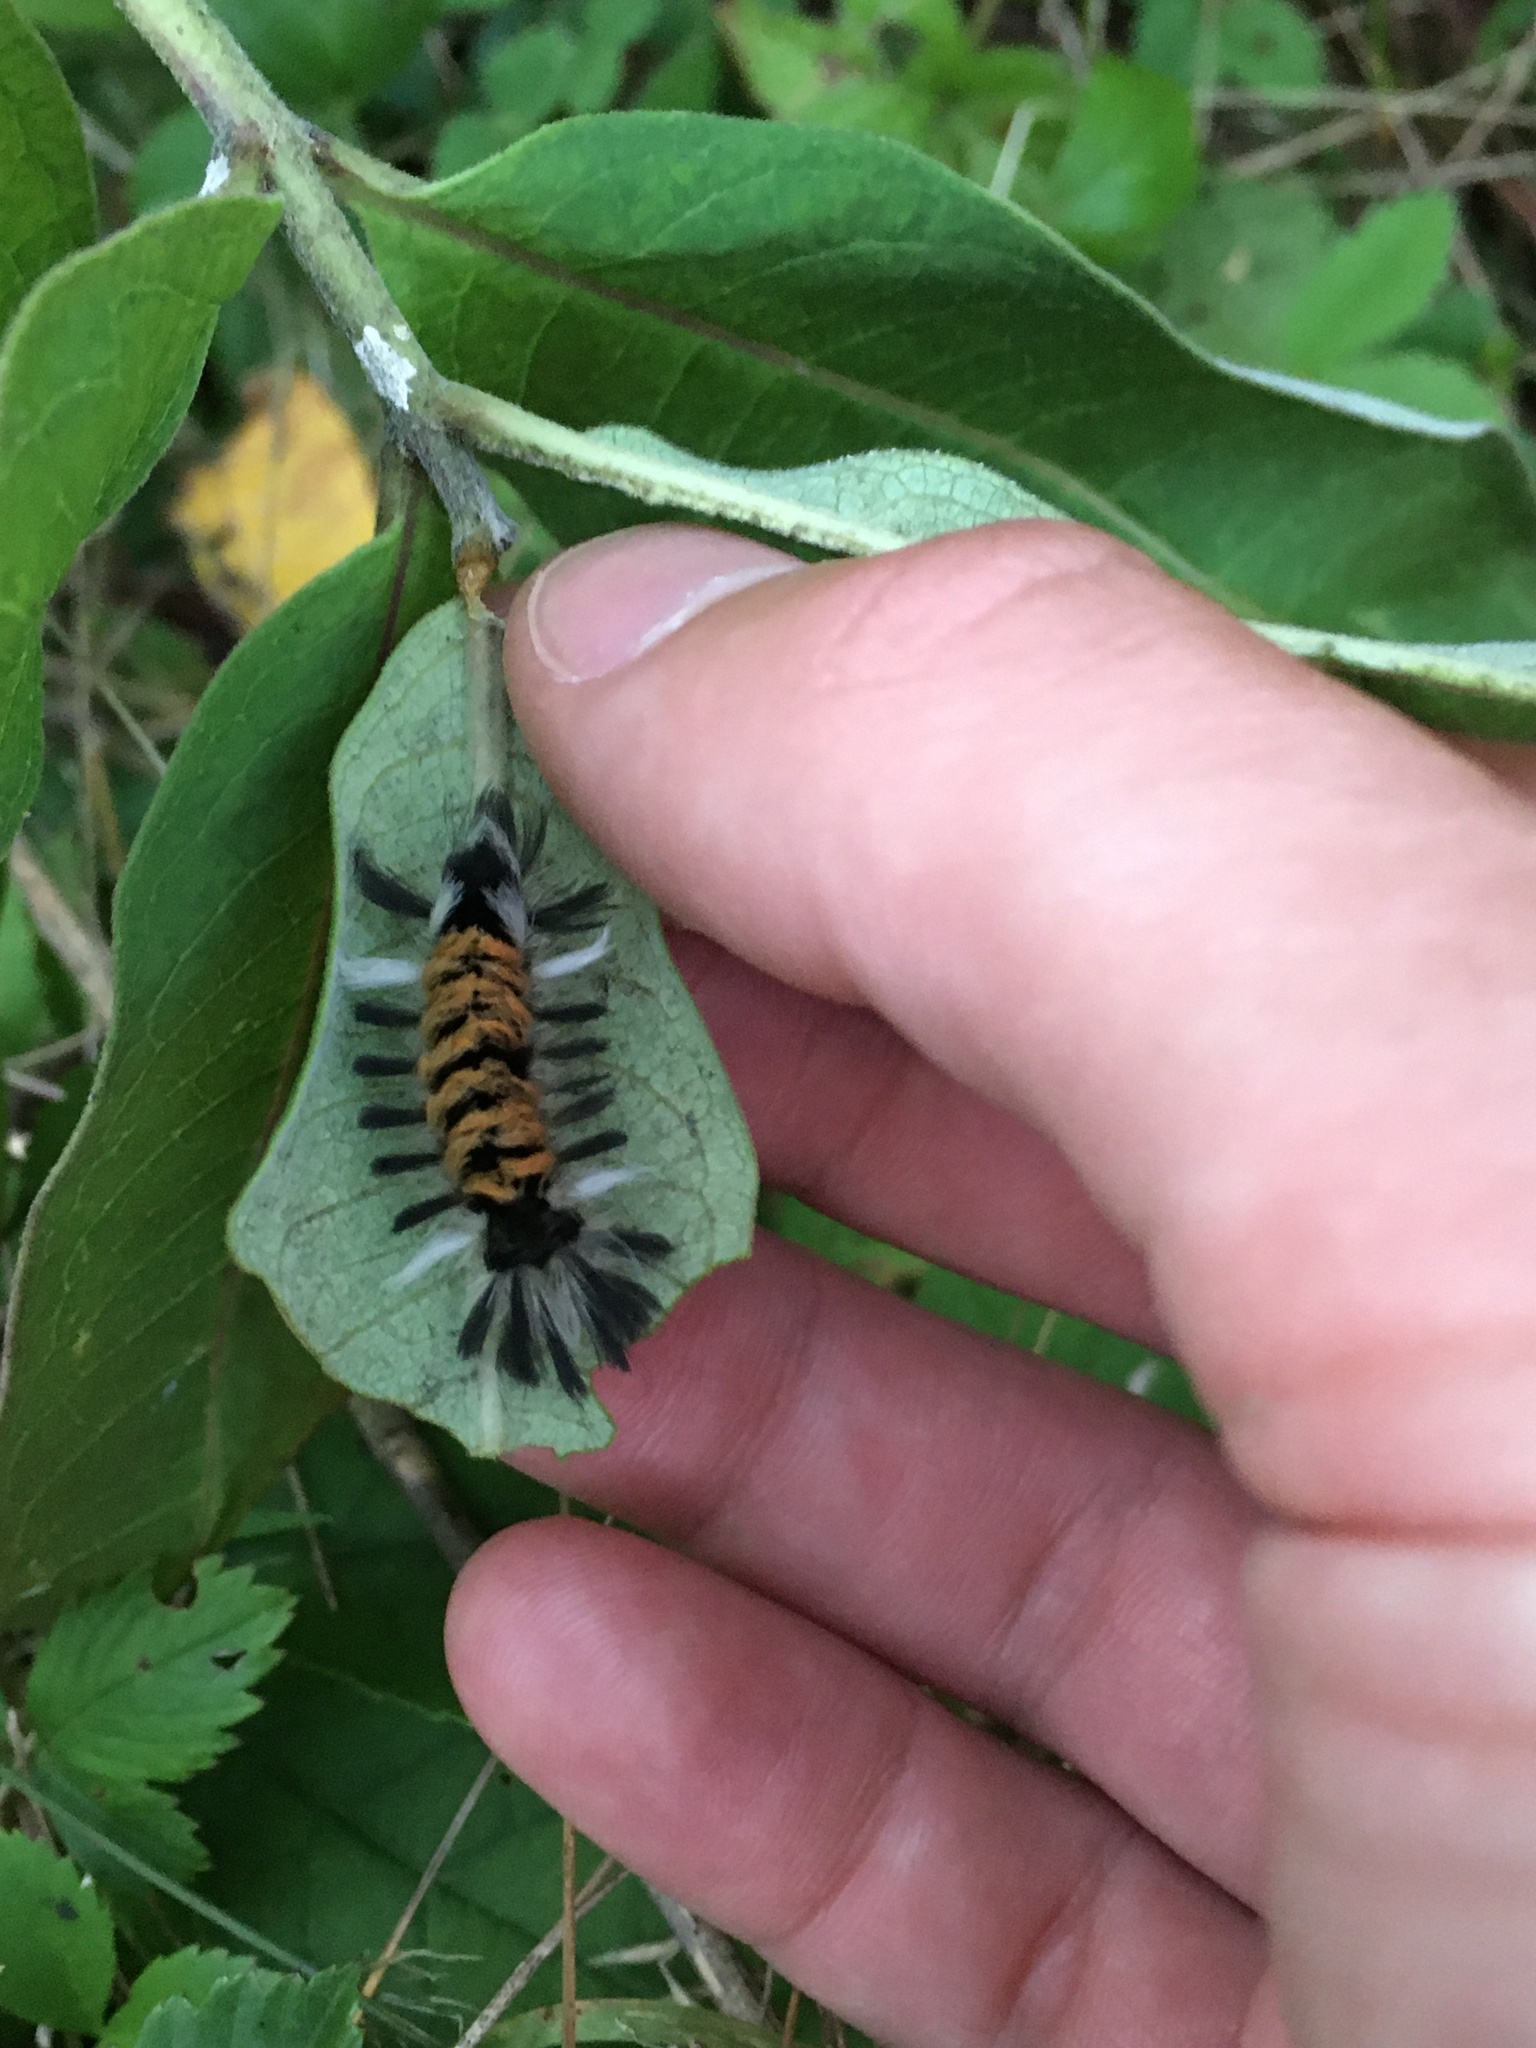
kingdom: Animalia
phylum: Arthropoda
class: Insecta
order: Lepidoptera
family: Erebidae
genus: Euchaetes
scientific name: Euchaetes egle
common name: Milkweed tussock moth
